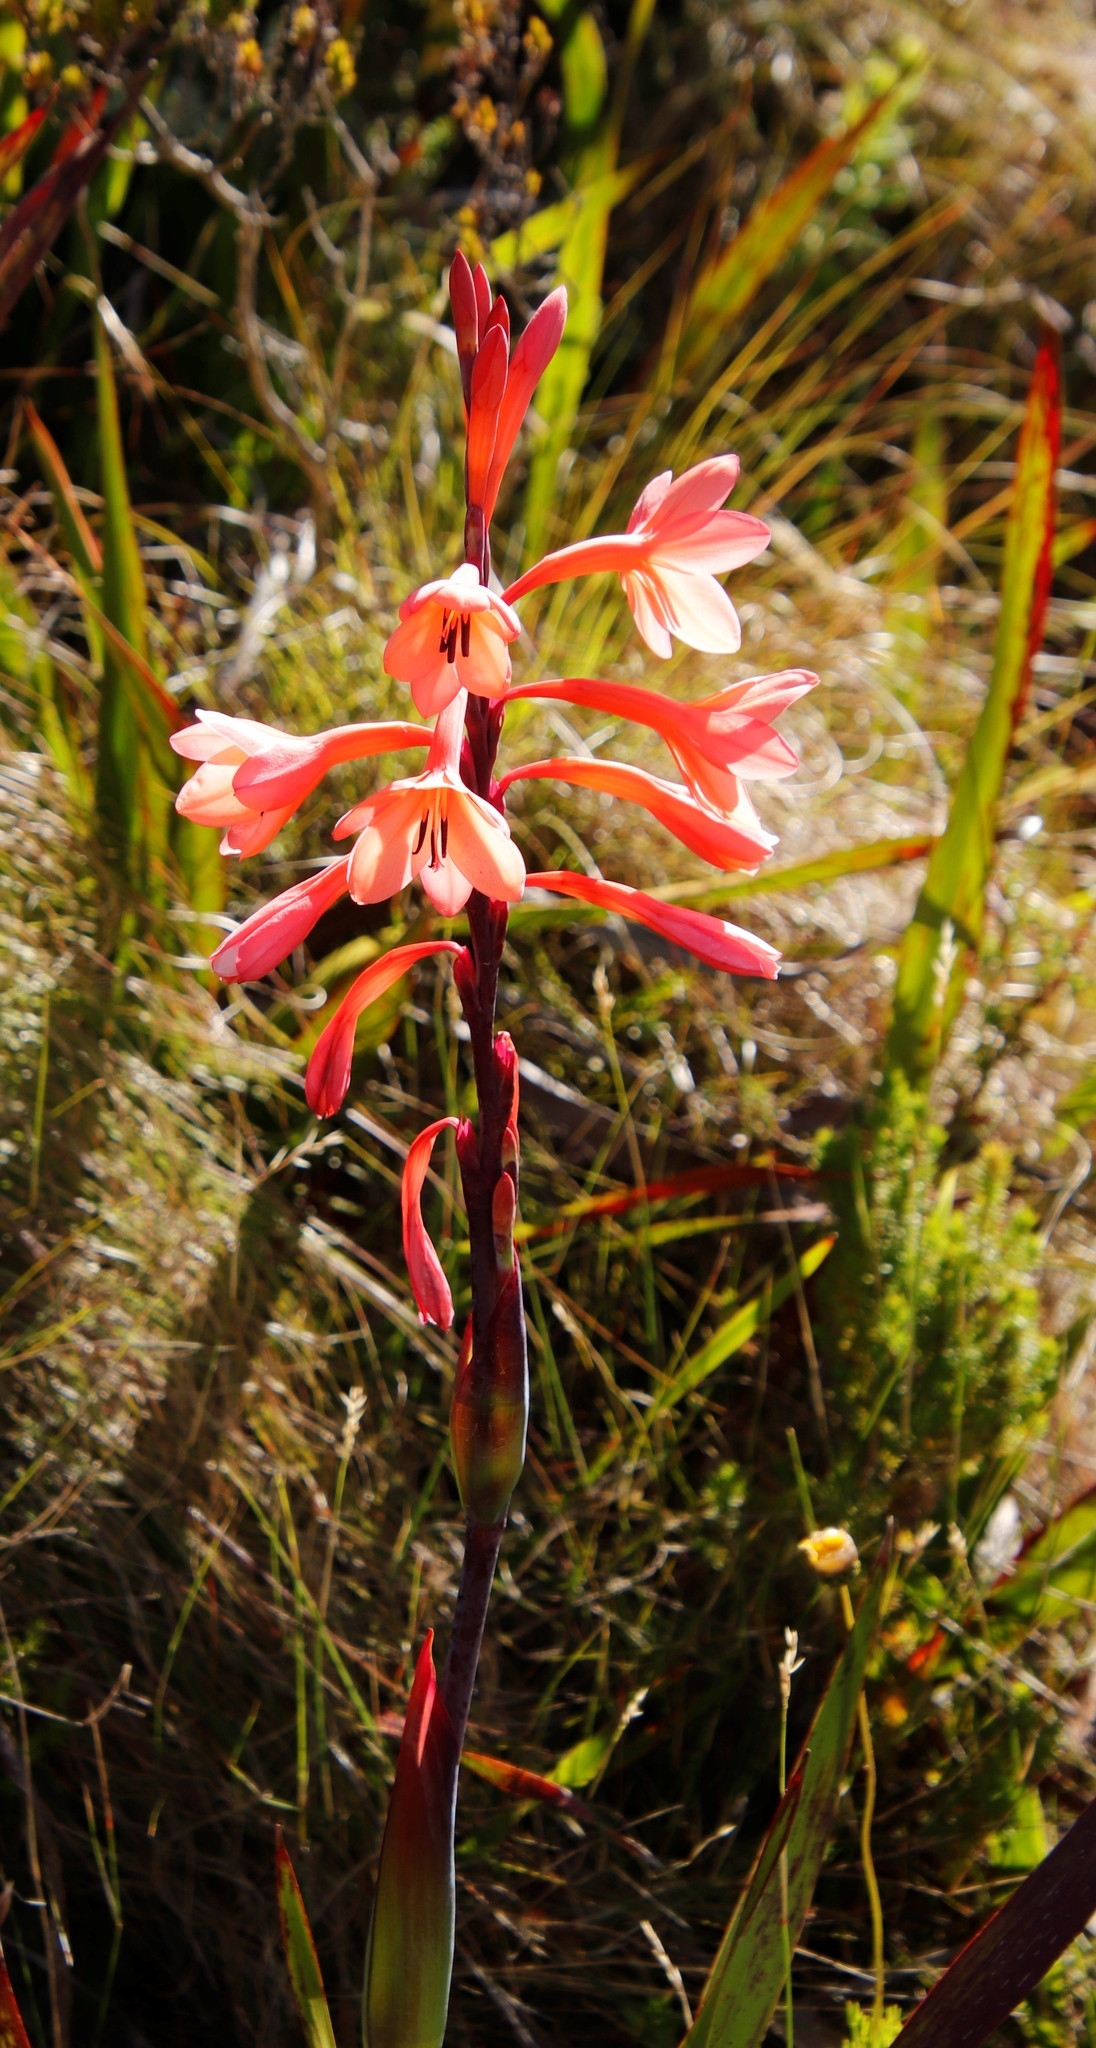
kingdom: Plantae
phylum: Tracheophyta
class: Liliopsida
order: Asparagales
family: Iridaceae
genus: Watsonia
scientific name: Watsonia tabularis
